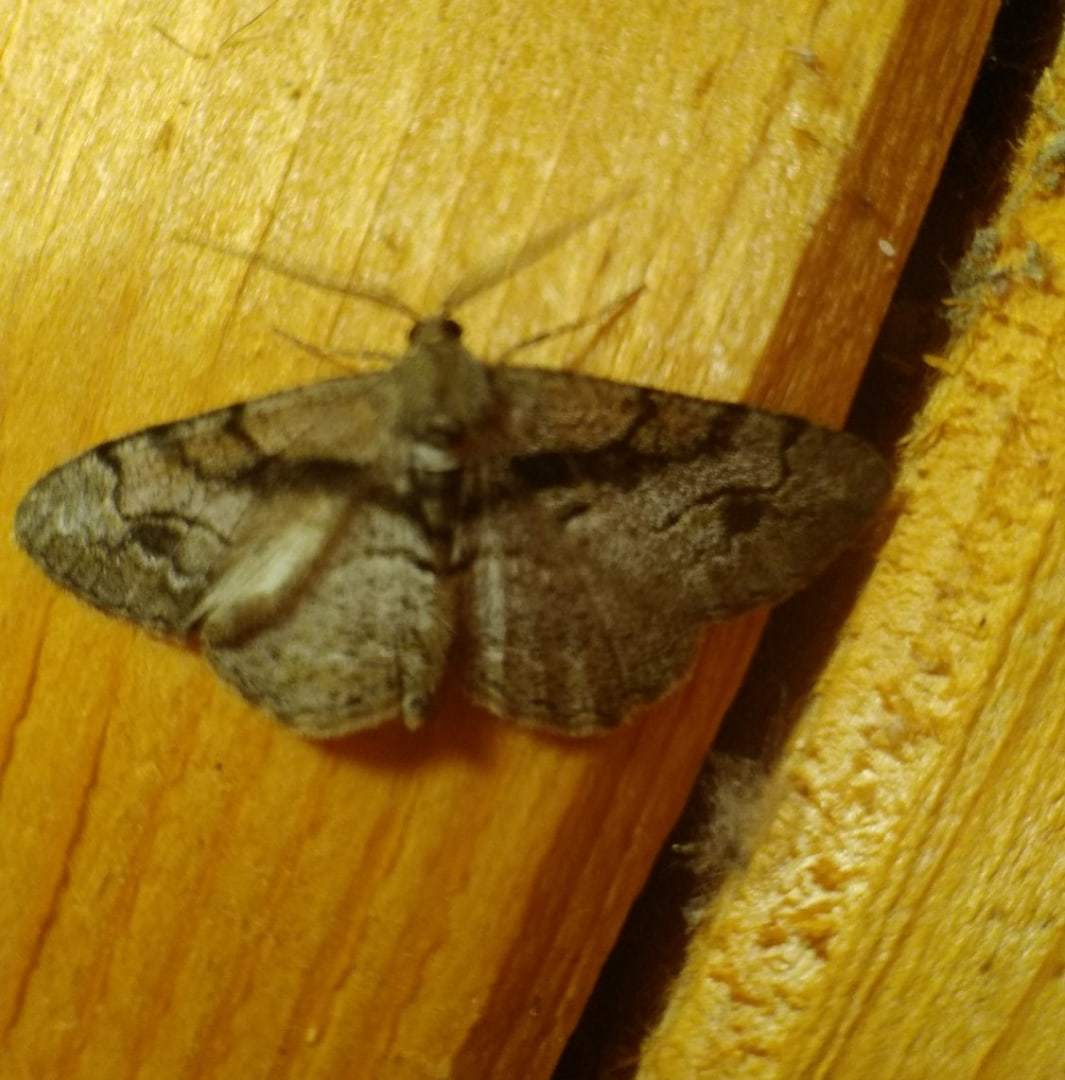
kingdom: Animalia
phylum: Arthropoda
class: Insecta
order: Lepidoptera
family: Geometridae
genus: Alcis
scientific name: Alcis deversata
